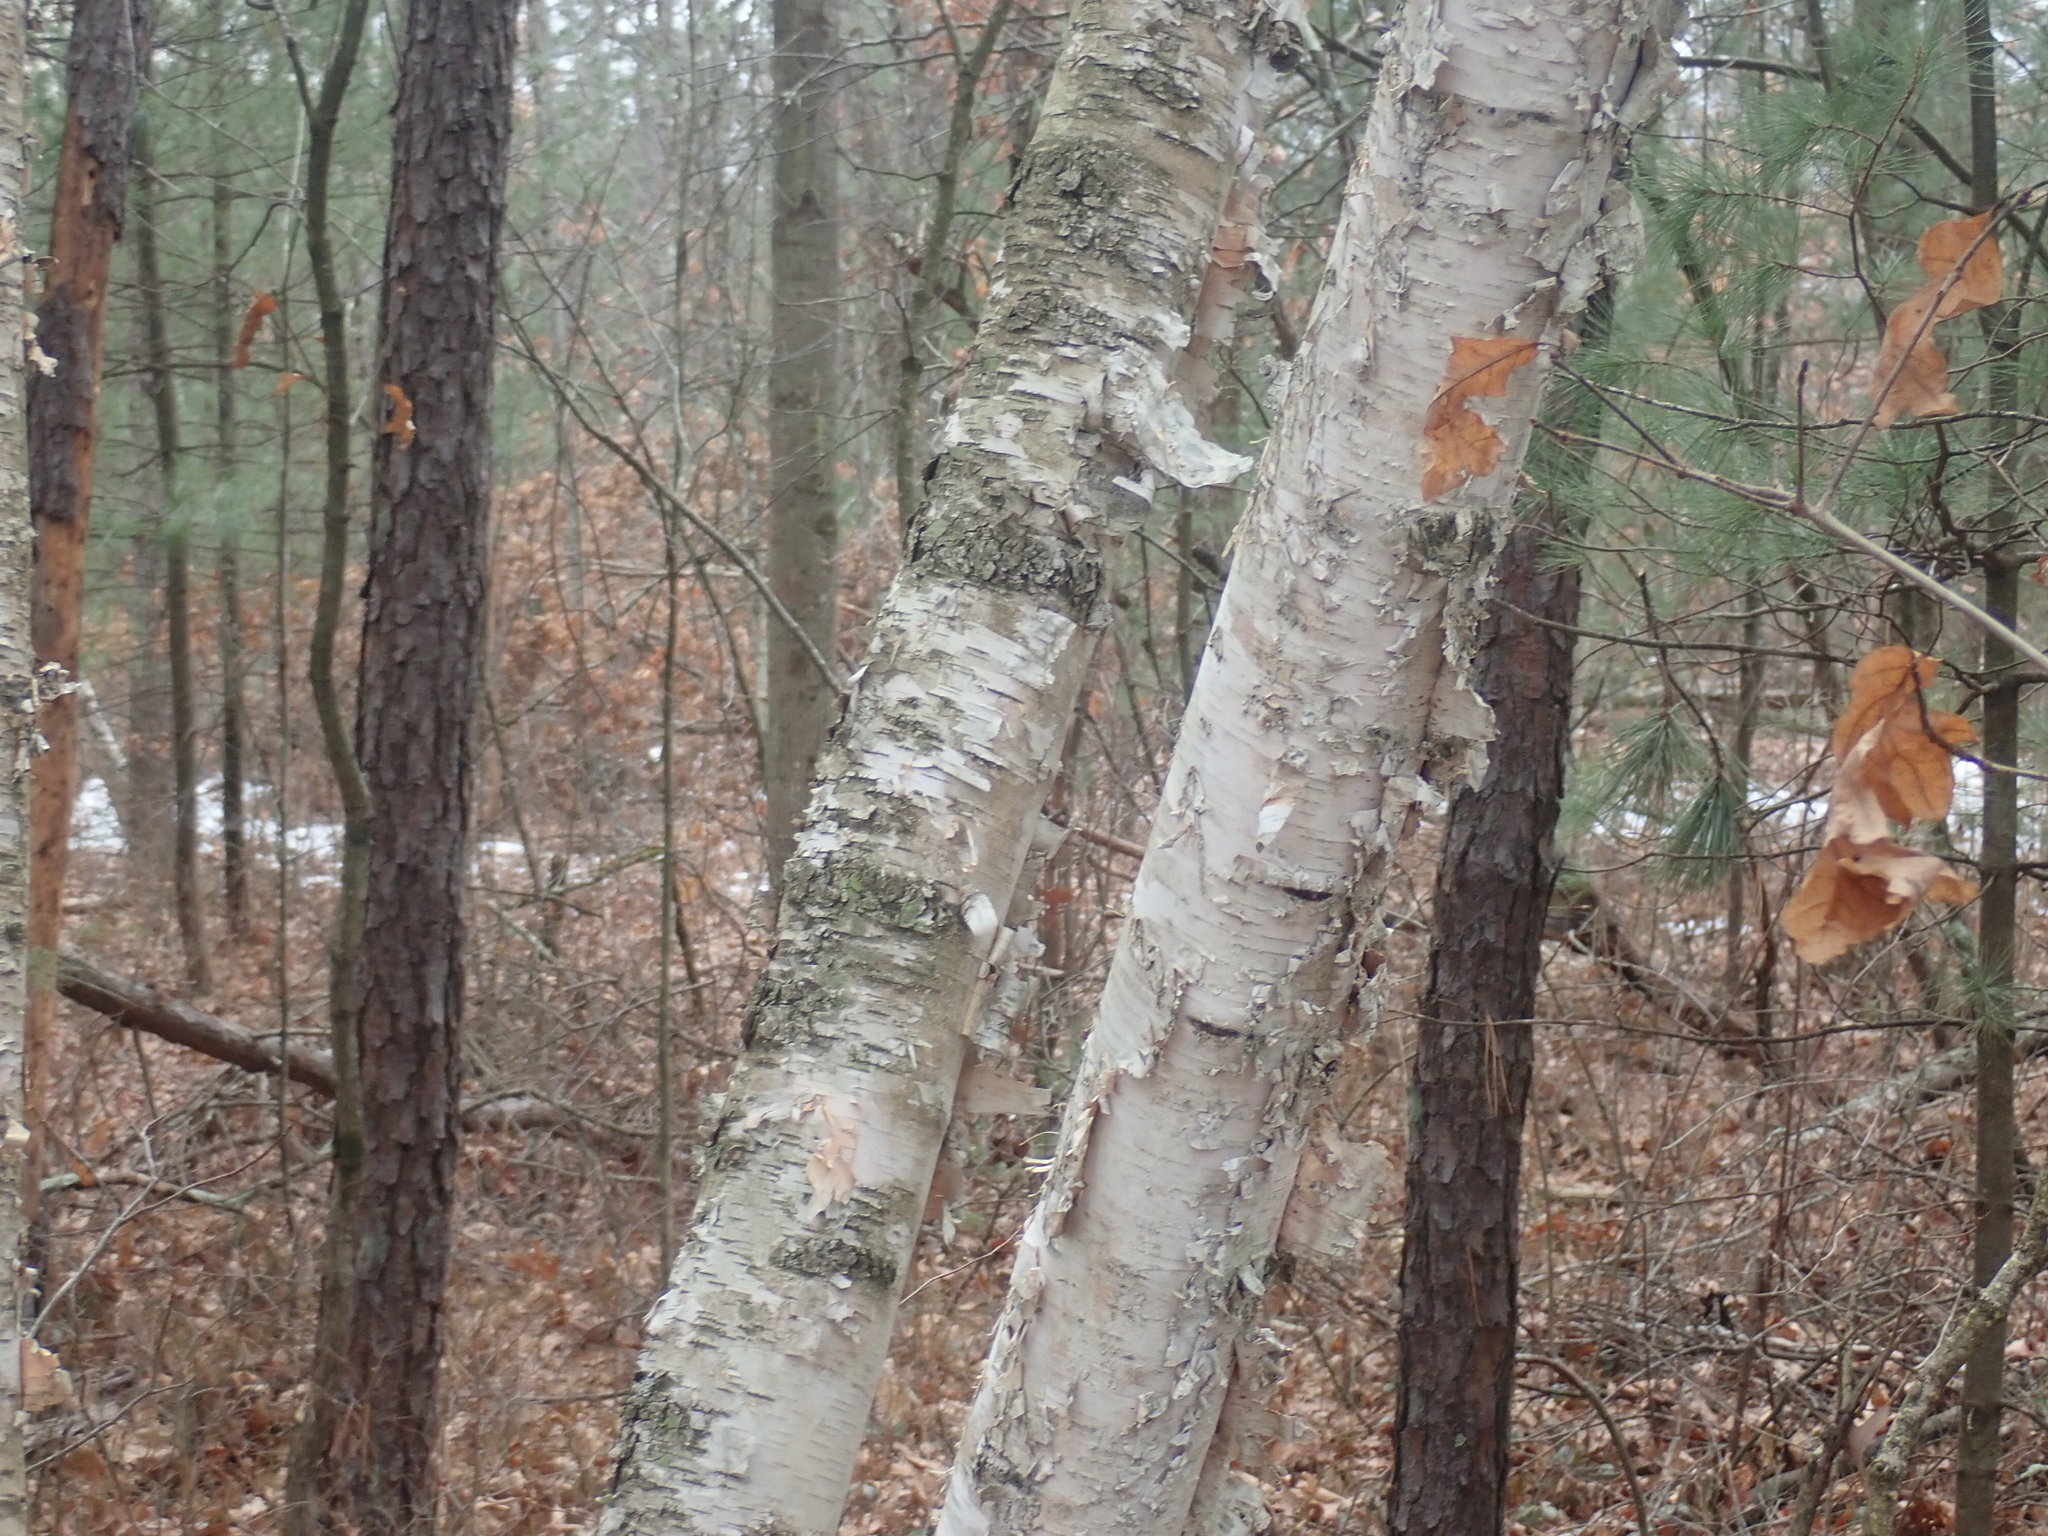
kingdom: Plantae
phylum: Tracheophyta
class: Magnoliopsida
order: Fagales
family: Betulaceae
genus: Betula
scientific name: Betula papyrifera
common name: Paper birch
